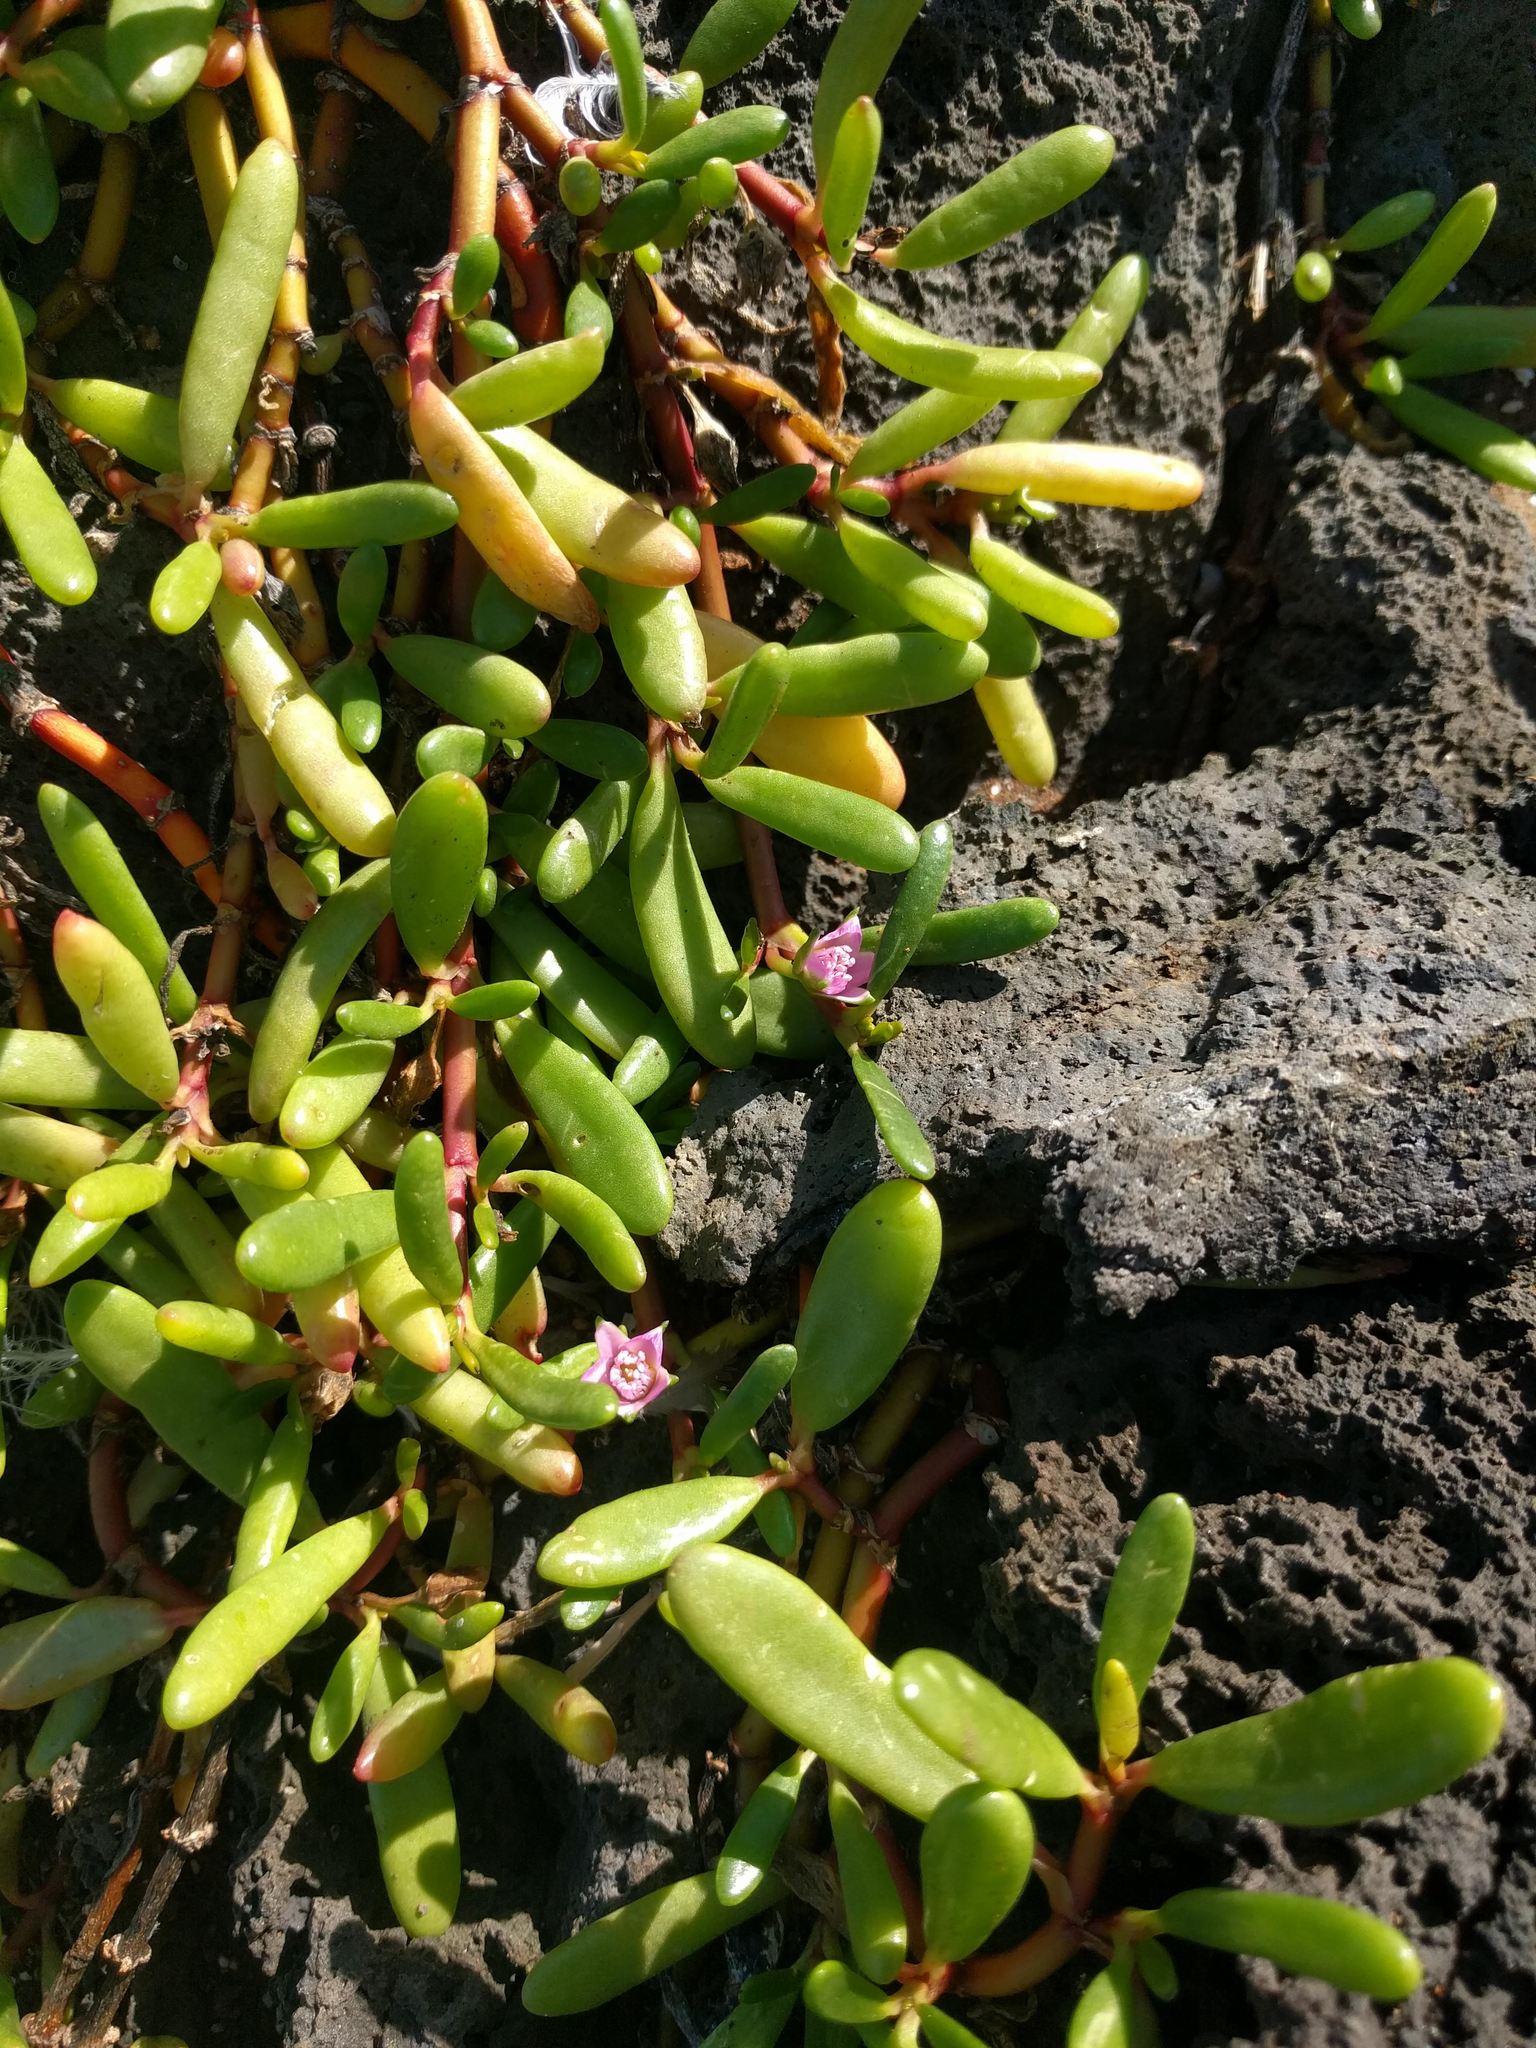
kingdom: Plantae
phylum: Tracheophyta
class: Magnoliopsida
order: Caryophyllales
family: Aizoaceae
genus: Sesuvium
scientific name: Sesuvium portulacastrum
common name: Sea-purslane
